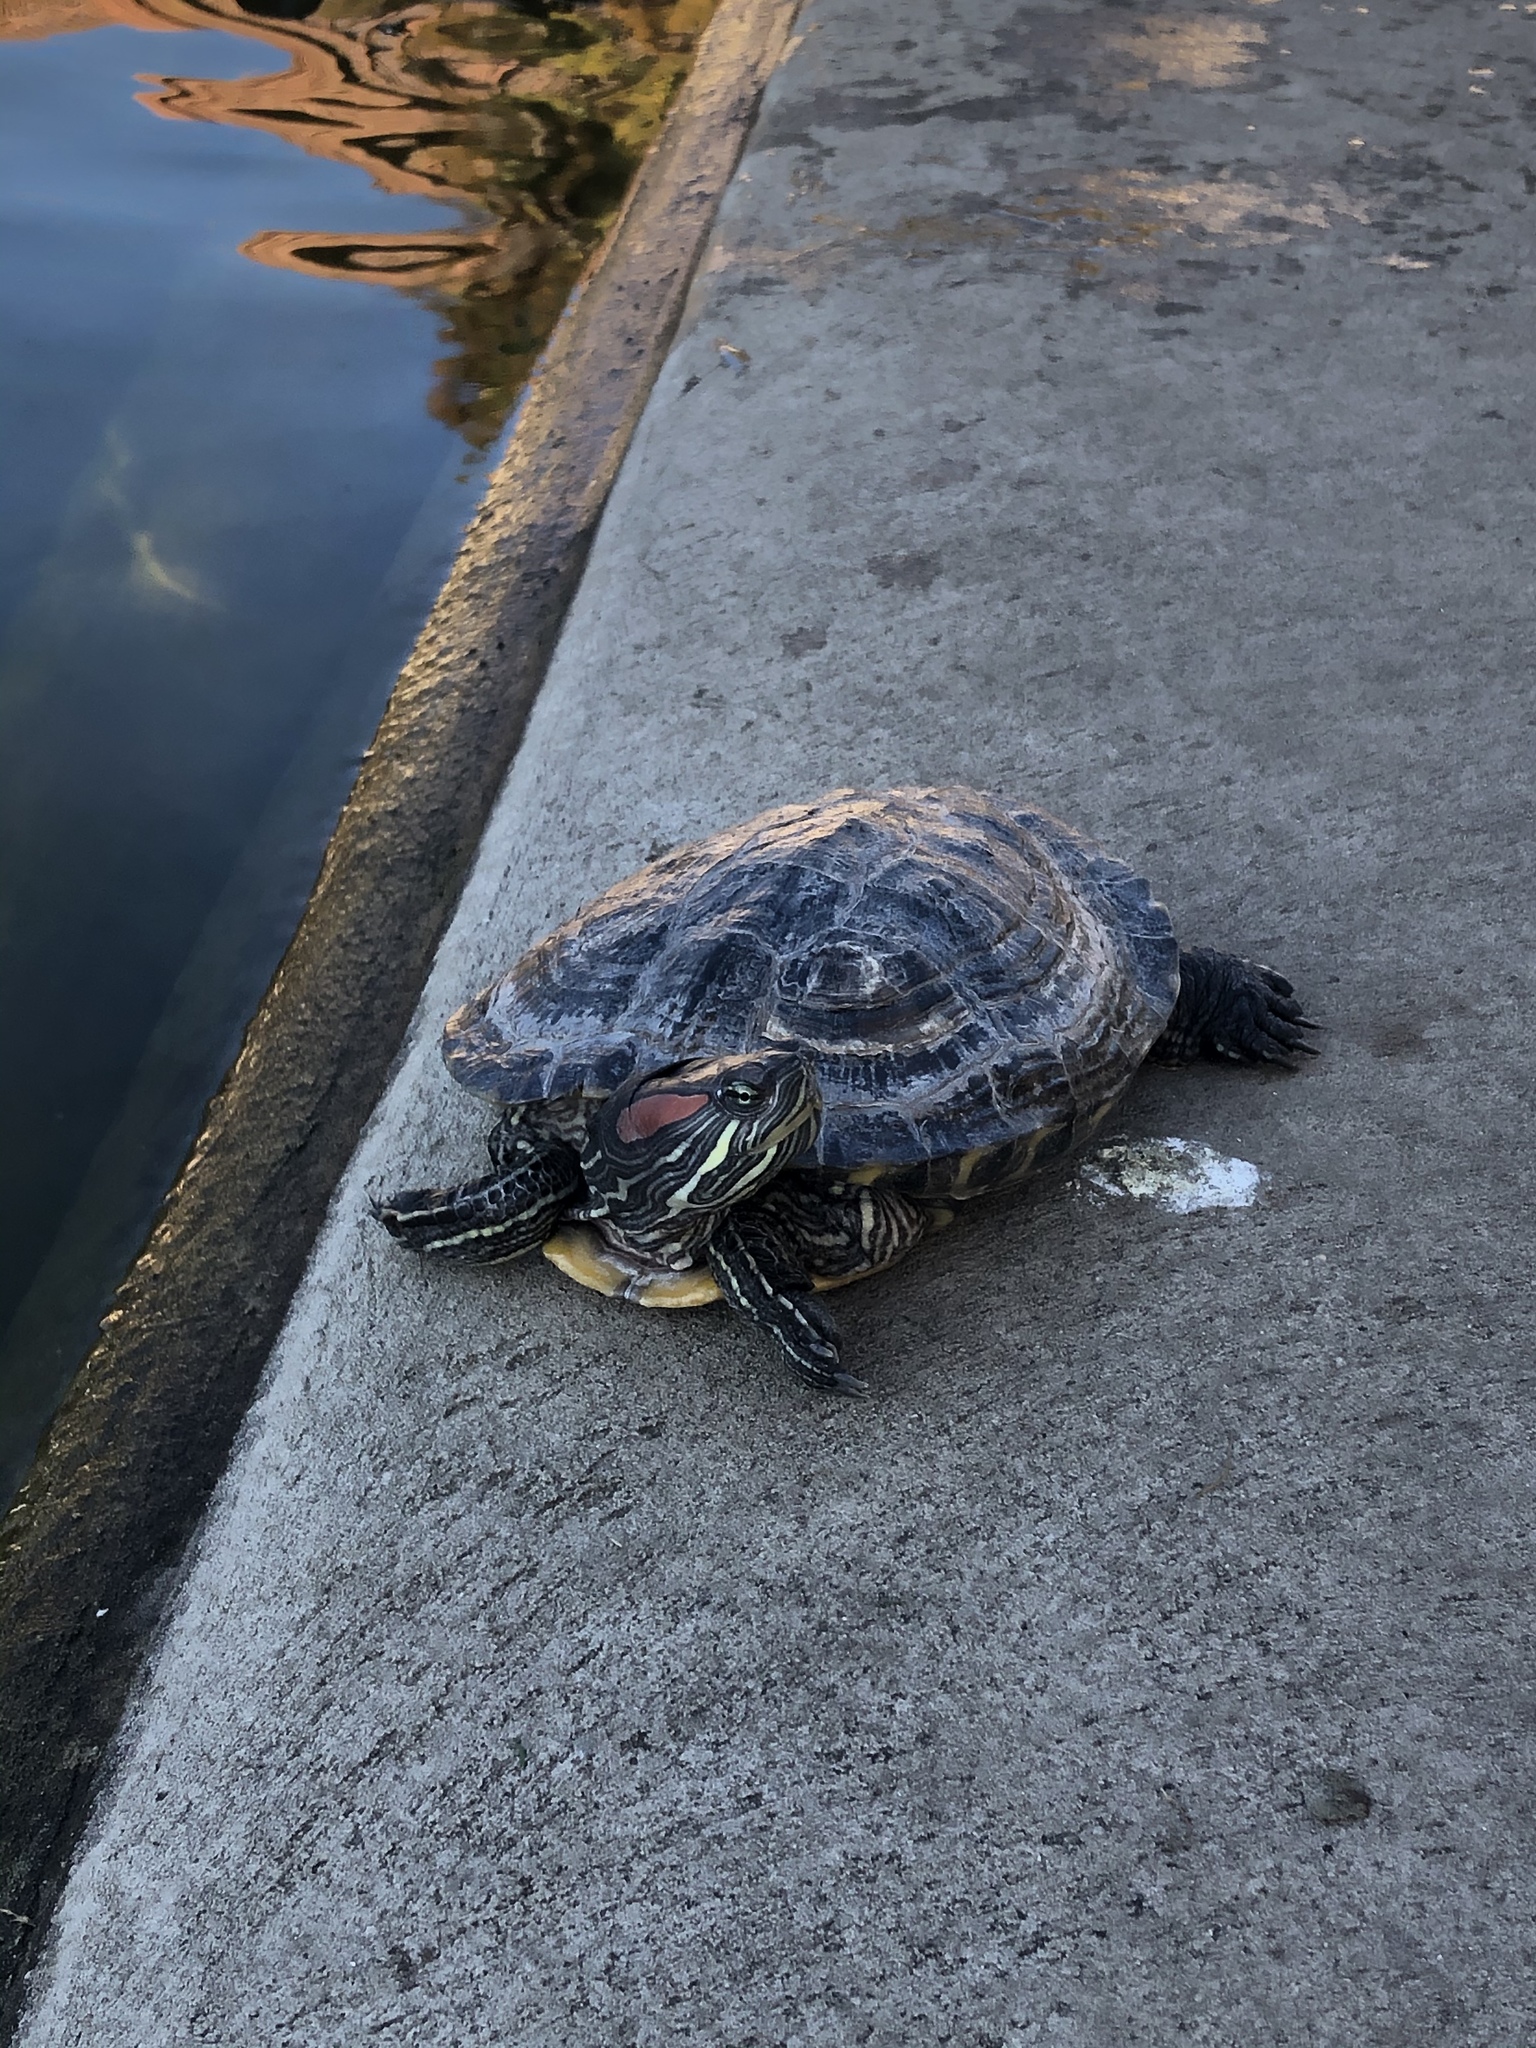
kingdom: Animalia
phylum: Chordata
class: Testudines
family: Emydidae
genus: Trachemys
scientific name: Trachemys scripta
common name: Slider
